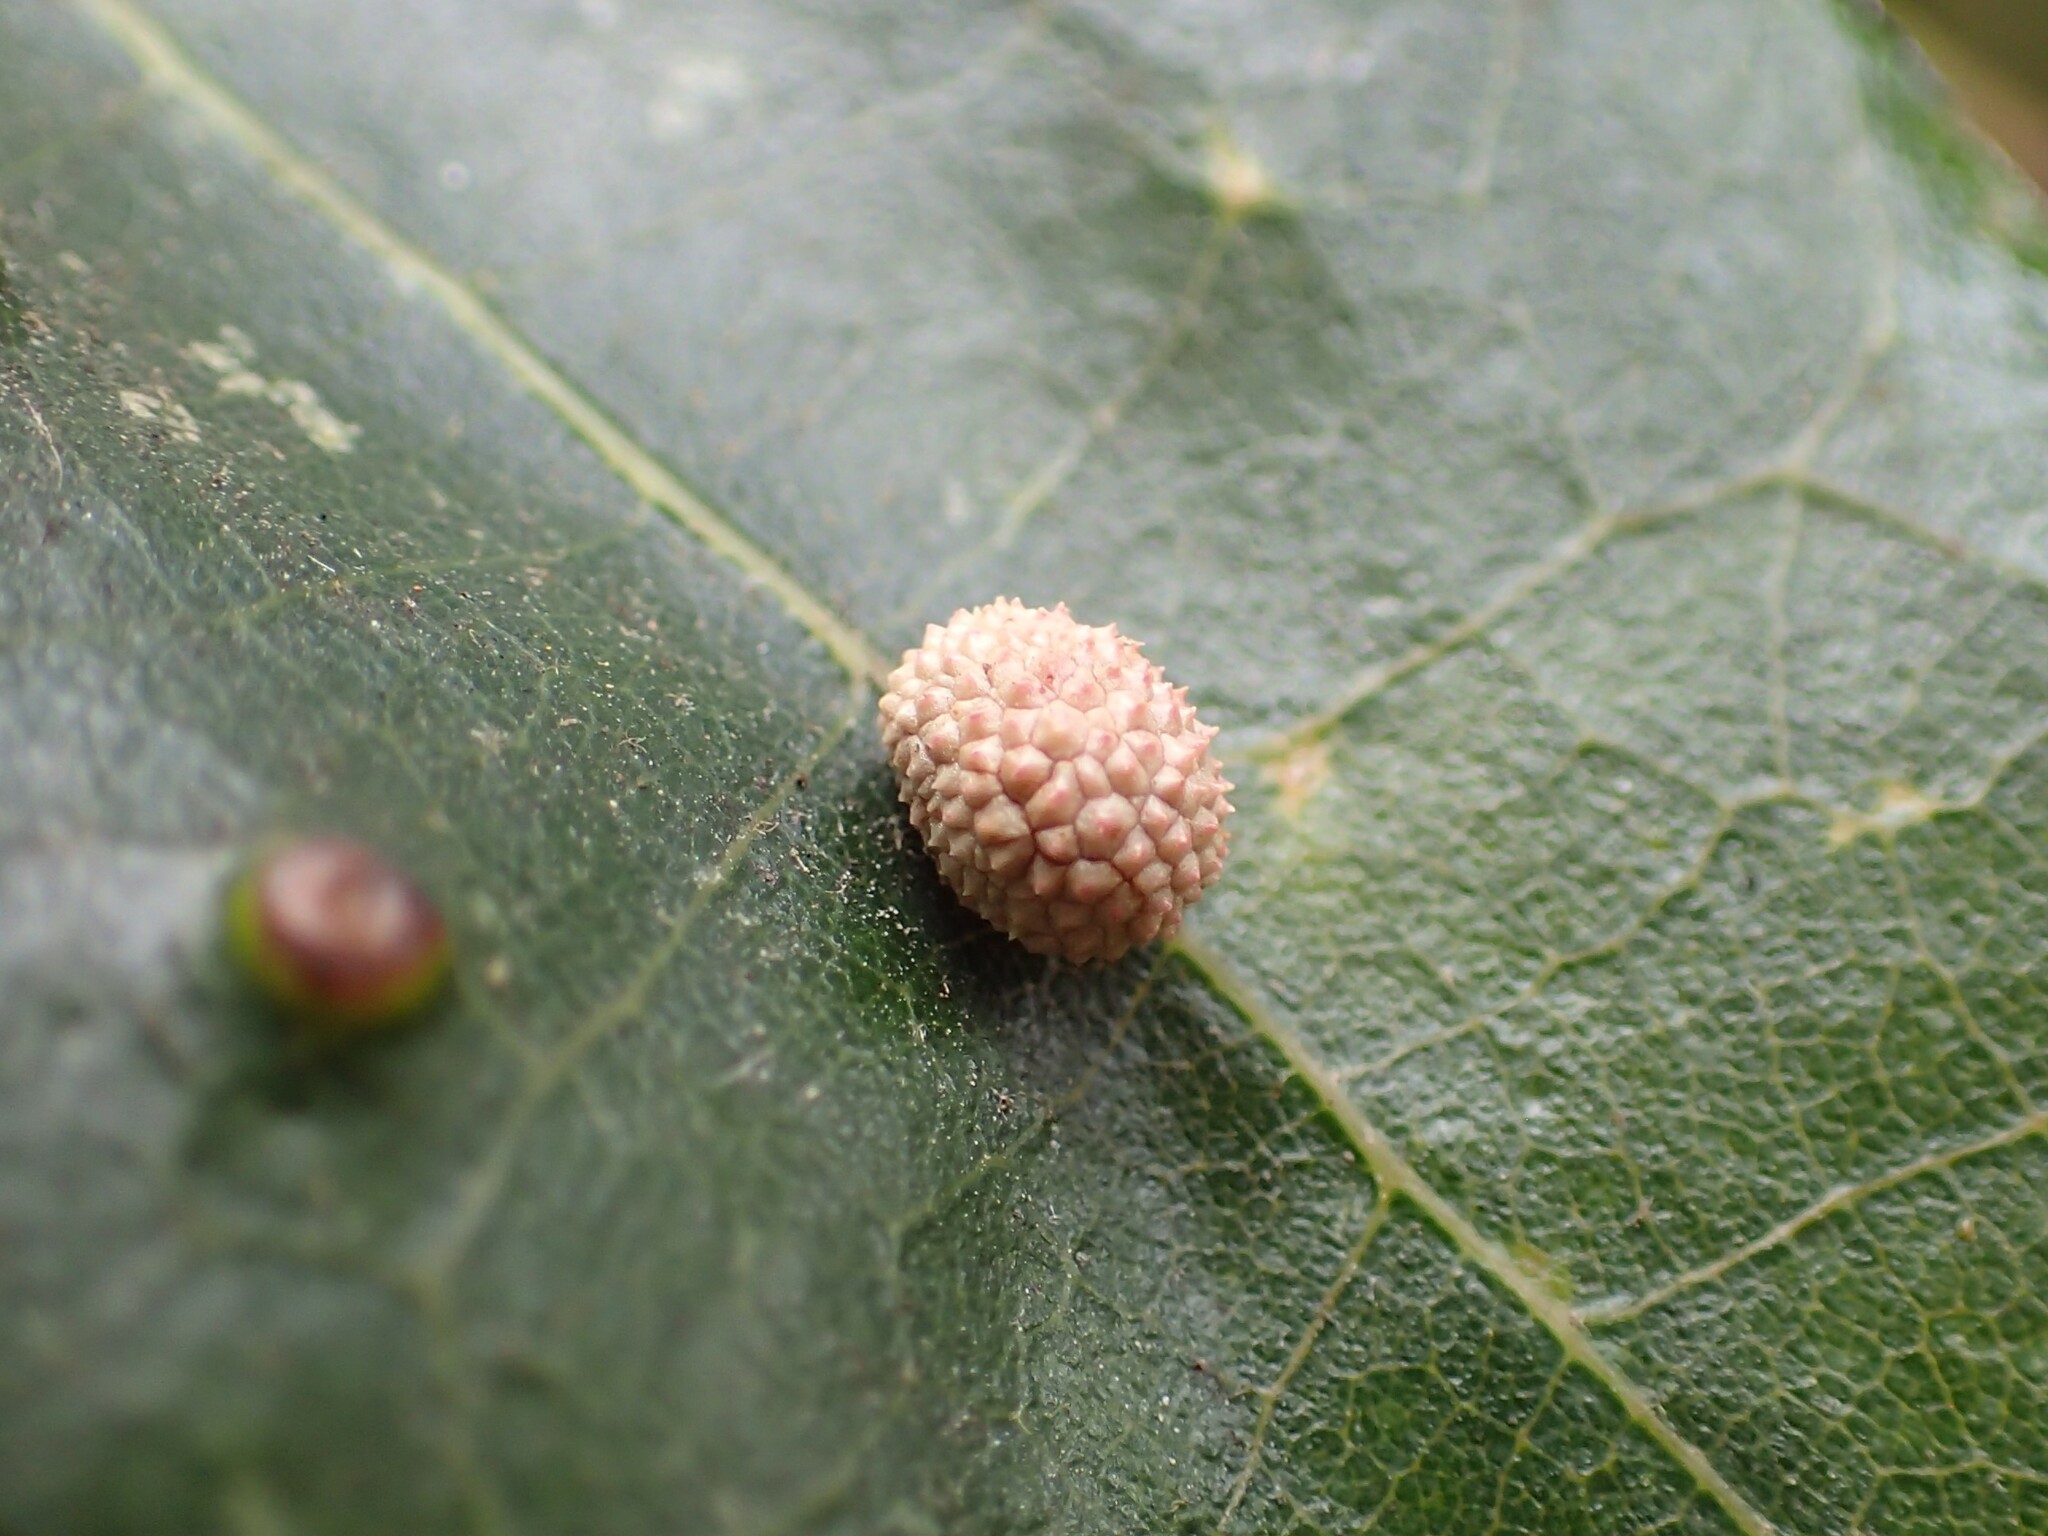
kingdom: Animalia
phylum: Arthropoda
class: Insecta
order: Hymenoptera
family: Cynipidae
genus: Acraspis
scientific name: Acraspis quercushirta
